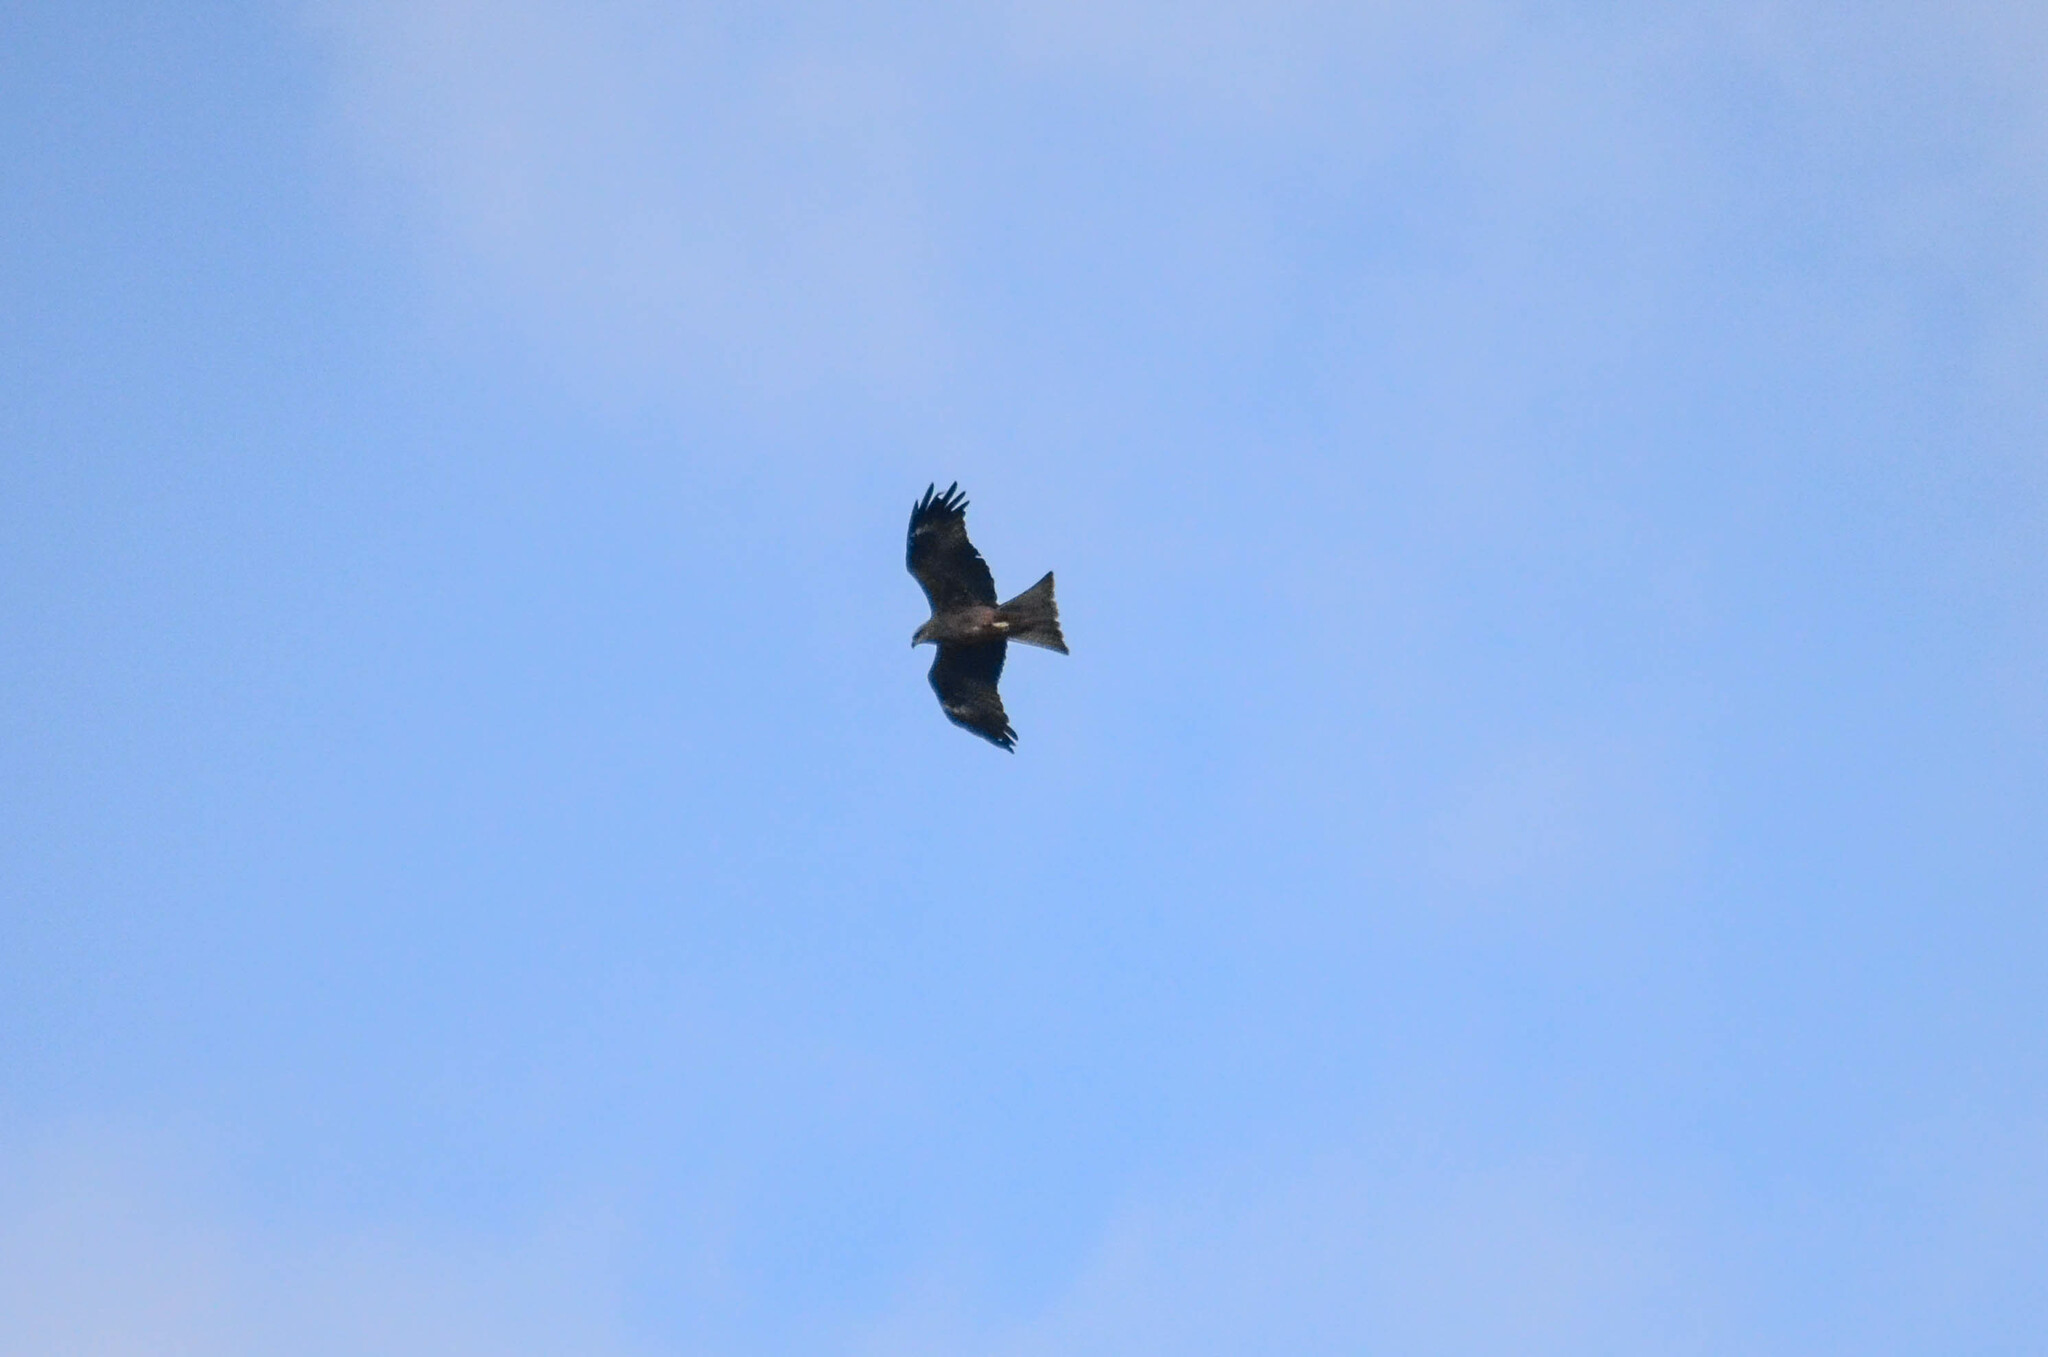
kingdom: Animalia
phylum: Chordata
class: Aves
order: Accipitriformes
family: Accipitridae
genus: Milvus
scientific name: Milvus migrans
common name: Black kite
